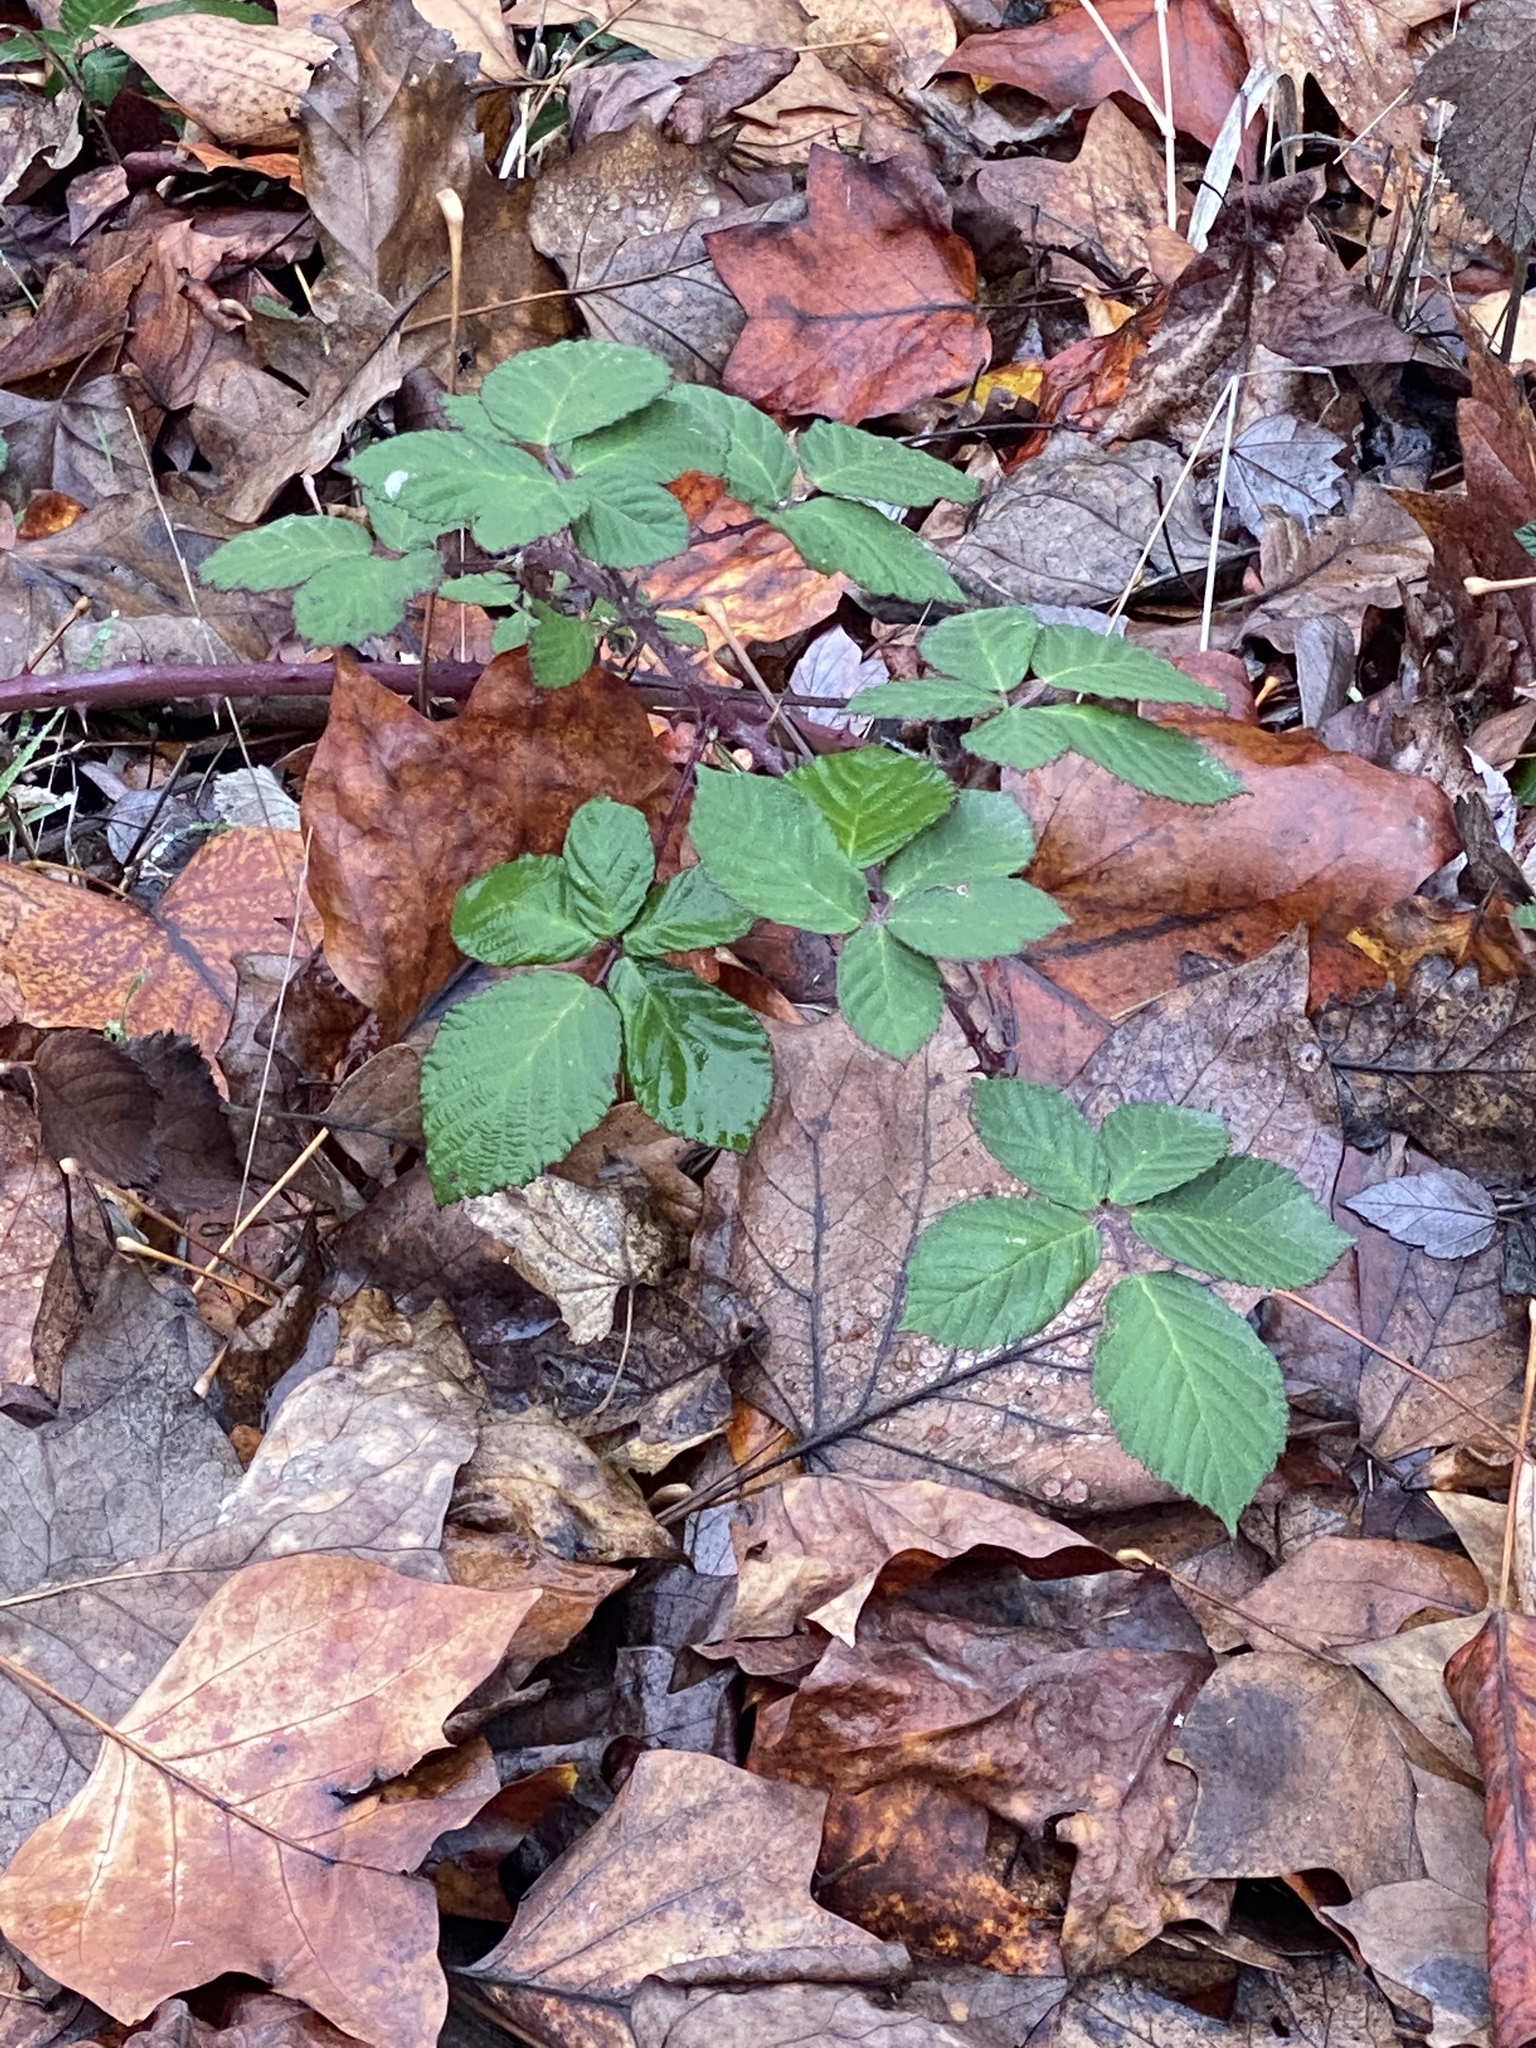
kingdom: Plantae
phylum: Tracheophyta
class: Magnoliopsida
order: Rosales
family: Rosaceae
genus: Rubus
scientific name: Rubus bifrons
